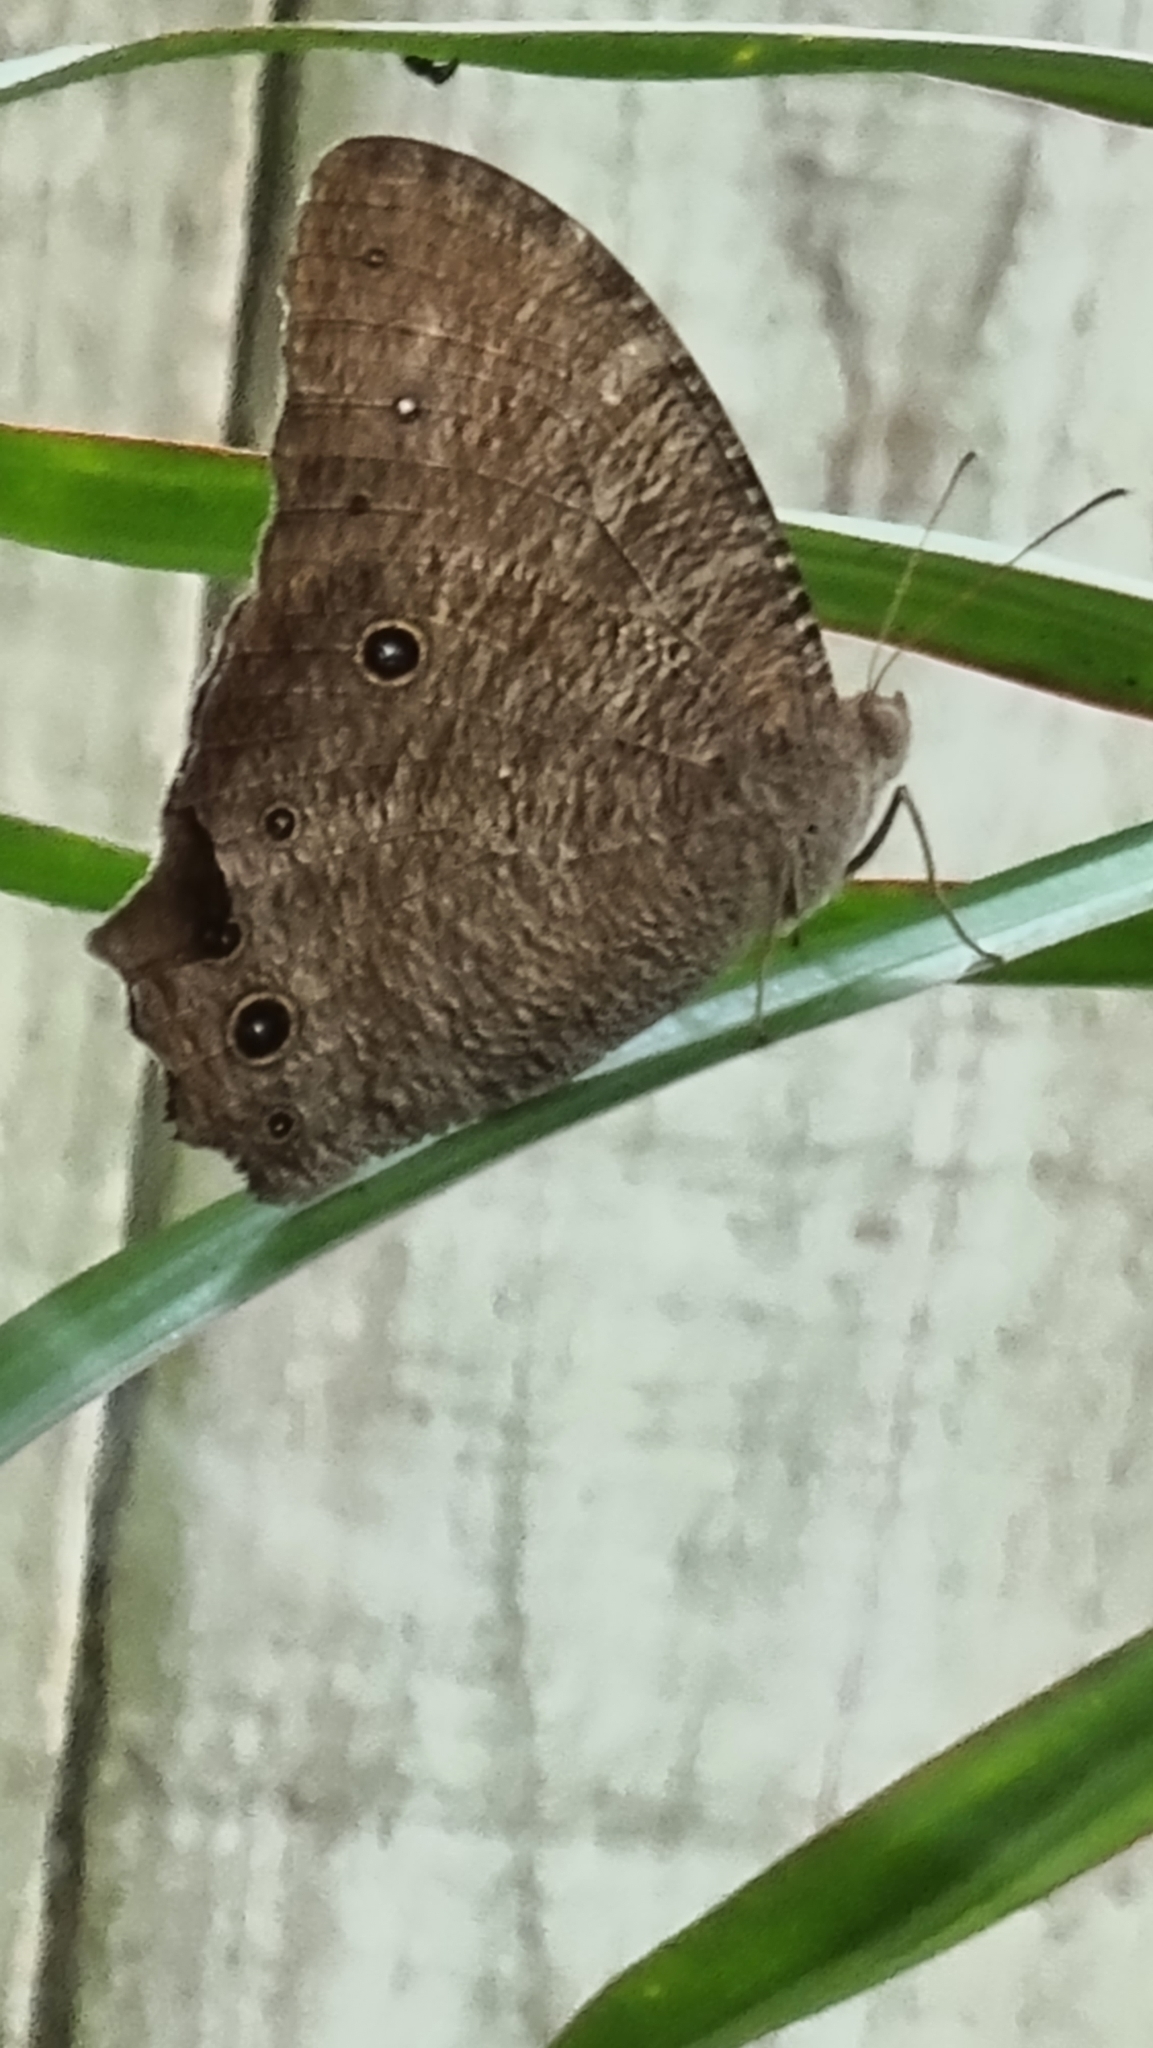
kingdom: Animalia
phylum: Arthropoda
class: Insecta
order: Lepidoptera
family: Nymphalidae
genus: Melanitis
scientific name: Melanitis leda
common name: Twilight brown
